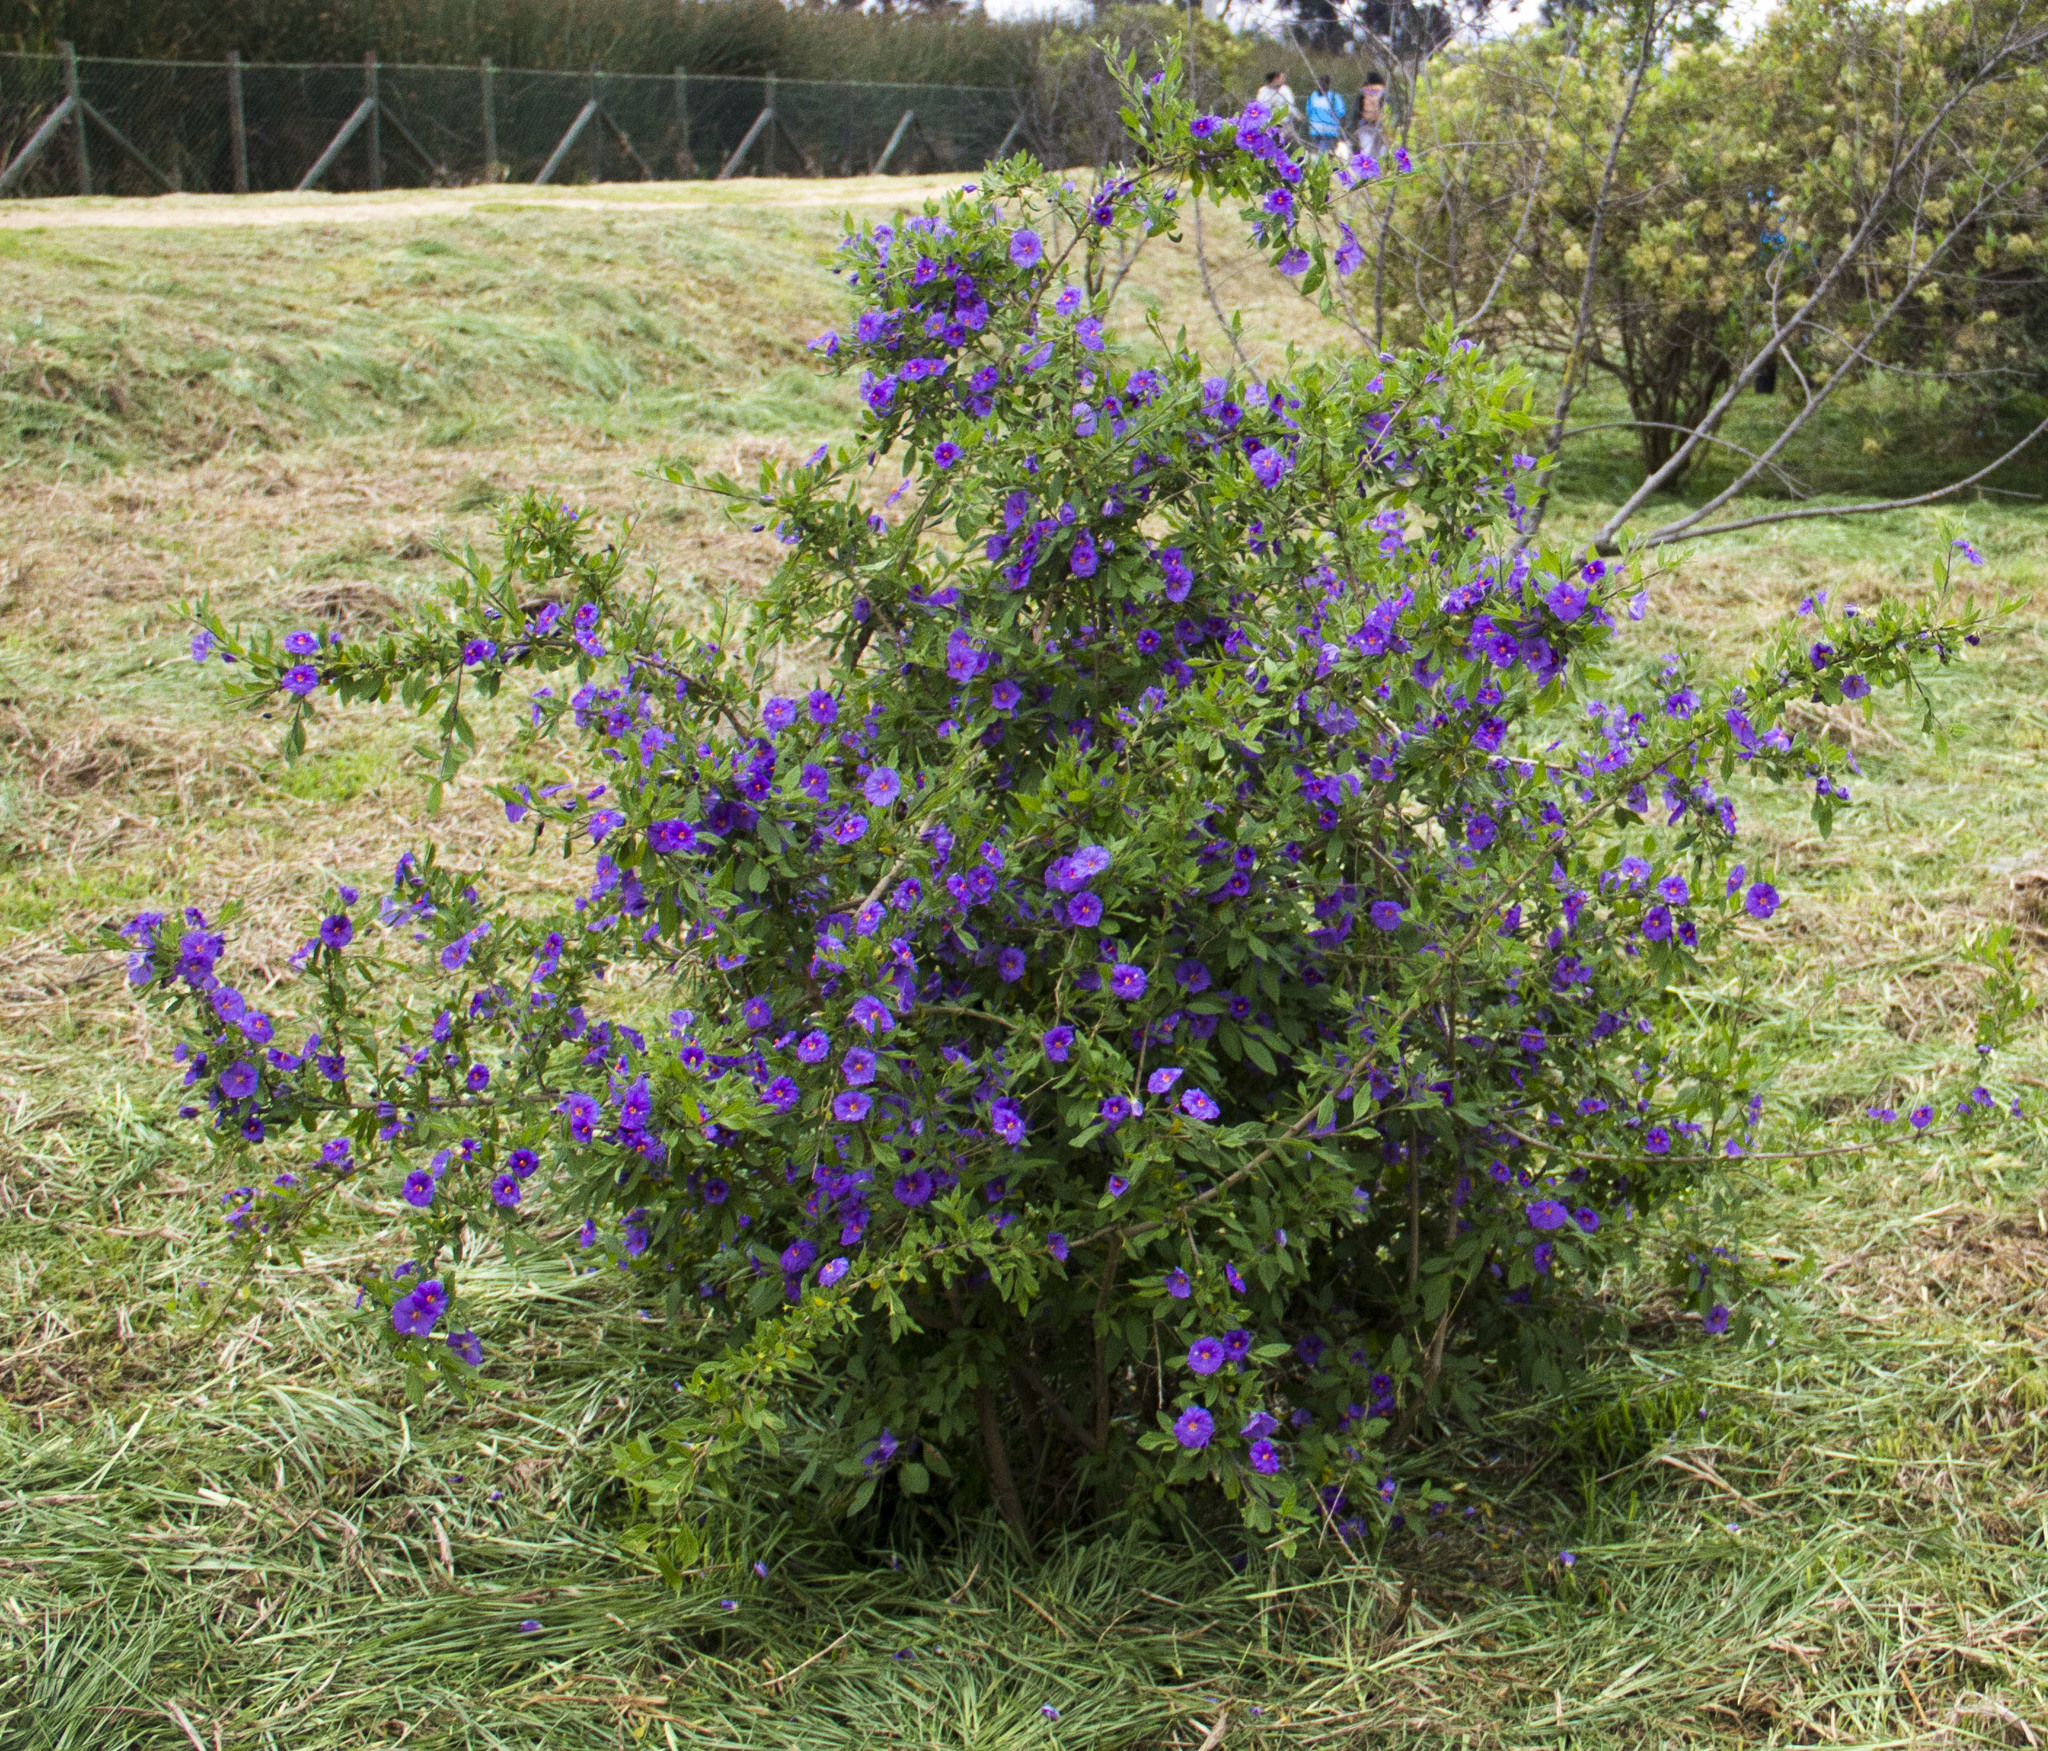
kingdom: Plantae
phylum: Tracheophyta
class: Magnoliopsida
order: Solanales
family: Solanaceae
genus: Lycianthes
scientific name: Lycianthes lycioides
